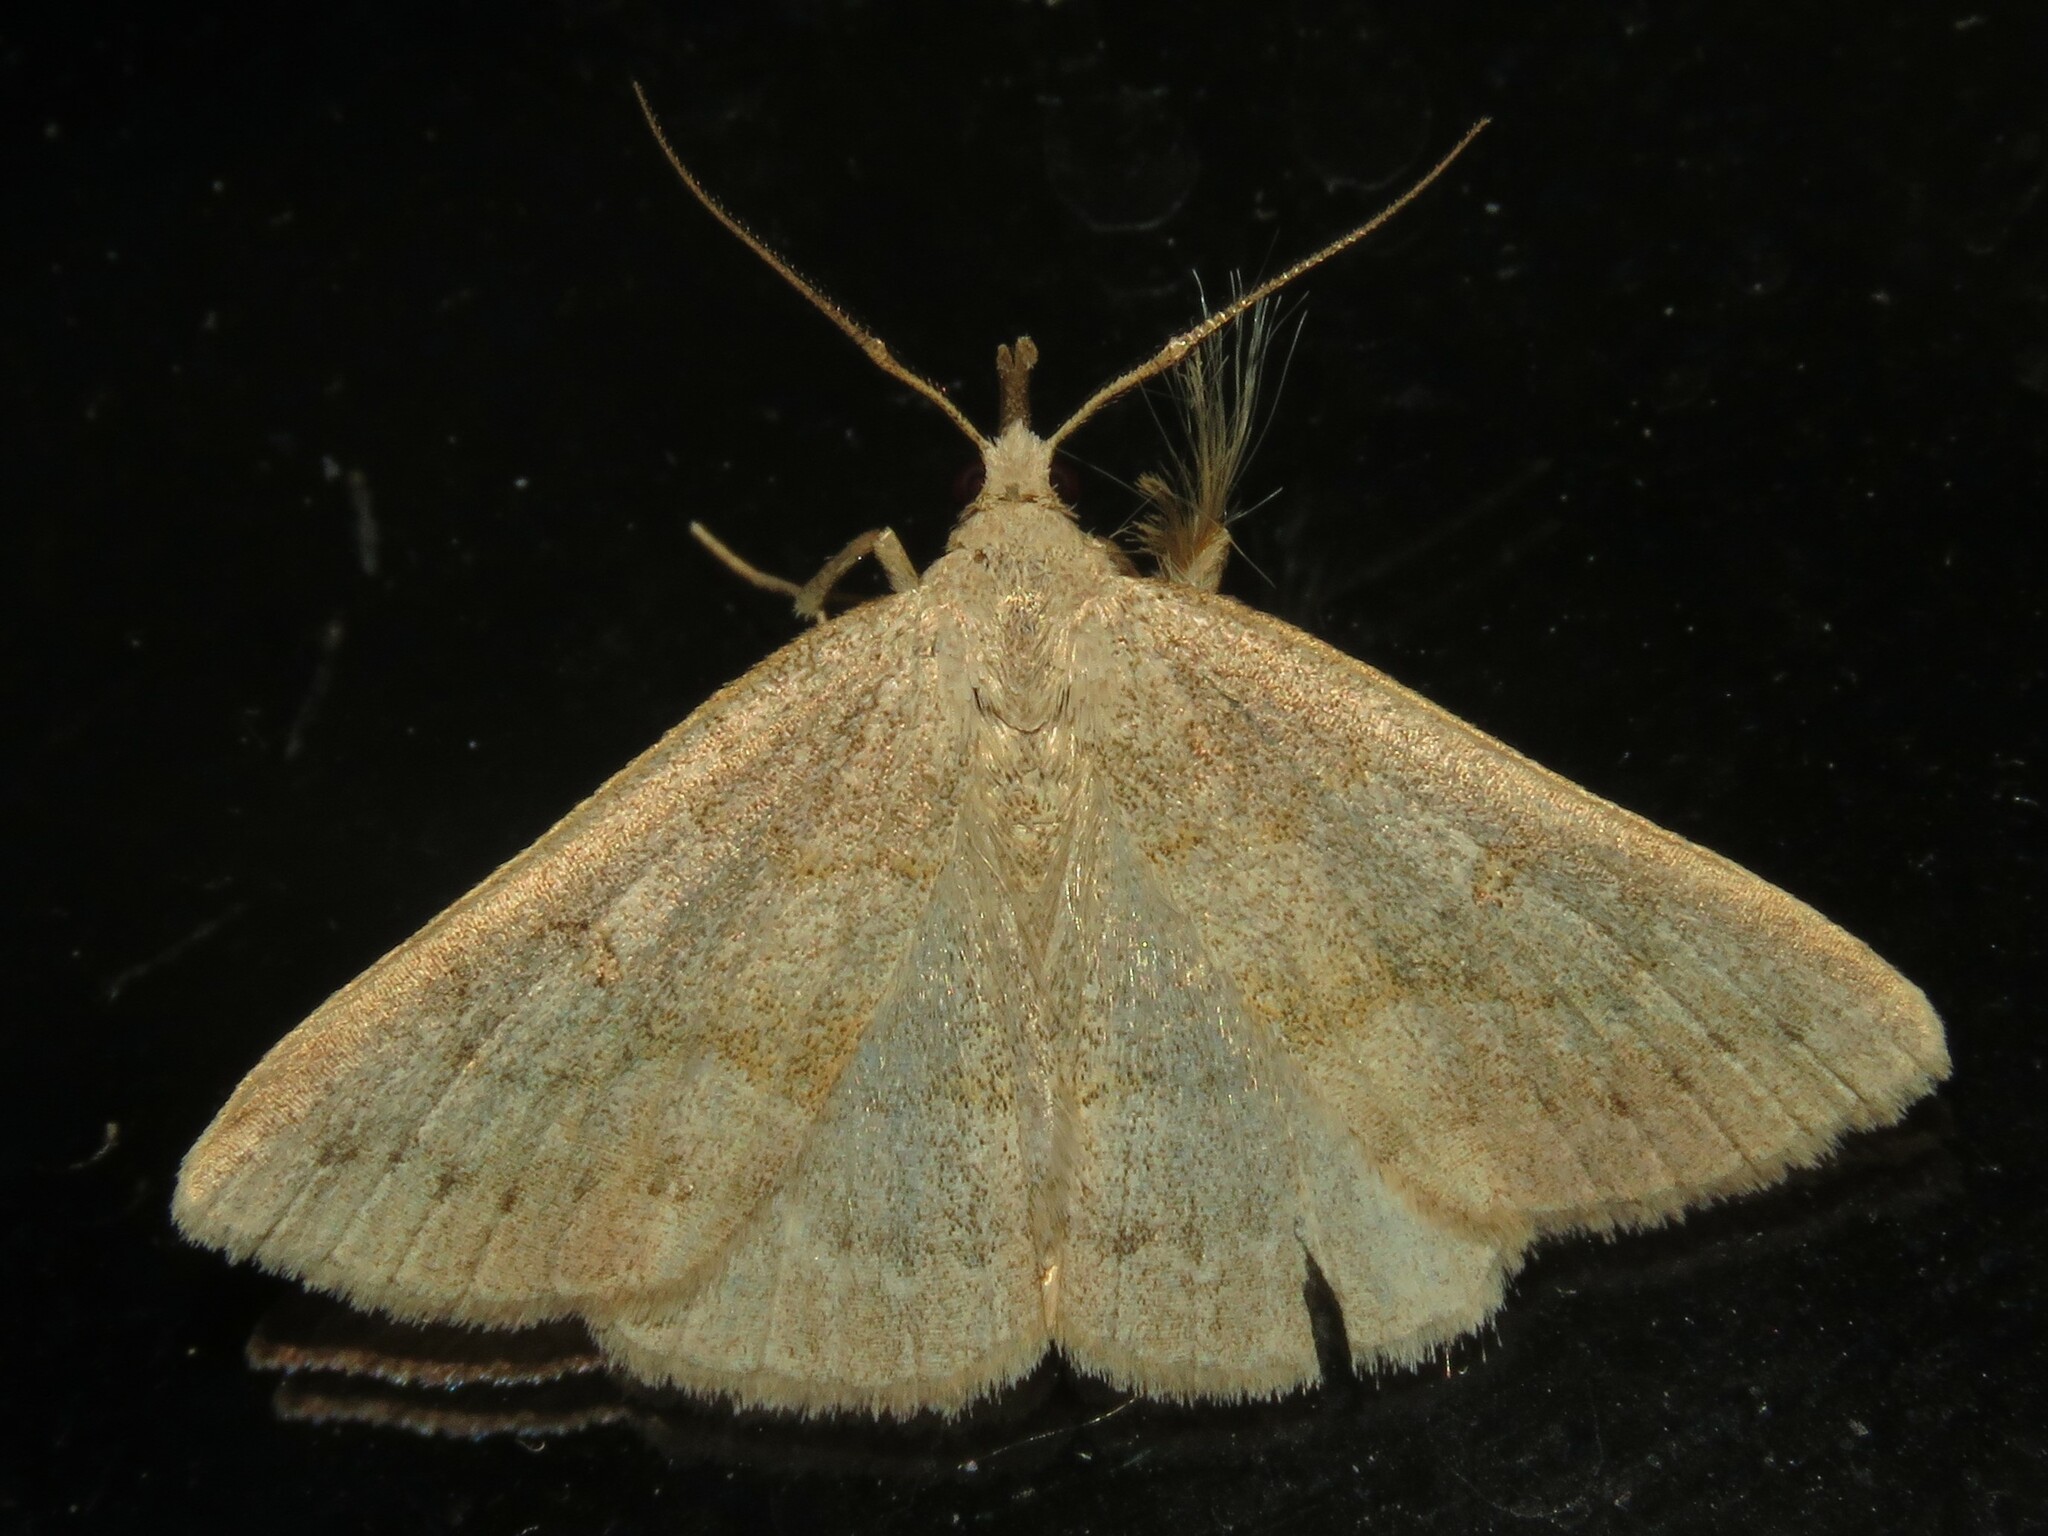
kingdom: Animalia
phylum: Arthropoda
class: Insecta
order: Lepidoptera
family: Erebidae
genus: Macrochilo
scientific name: Macrochilo morbidalis
